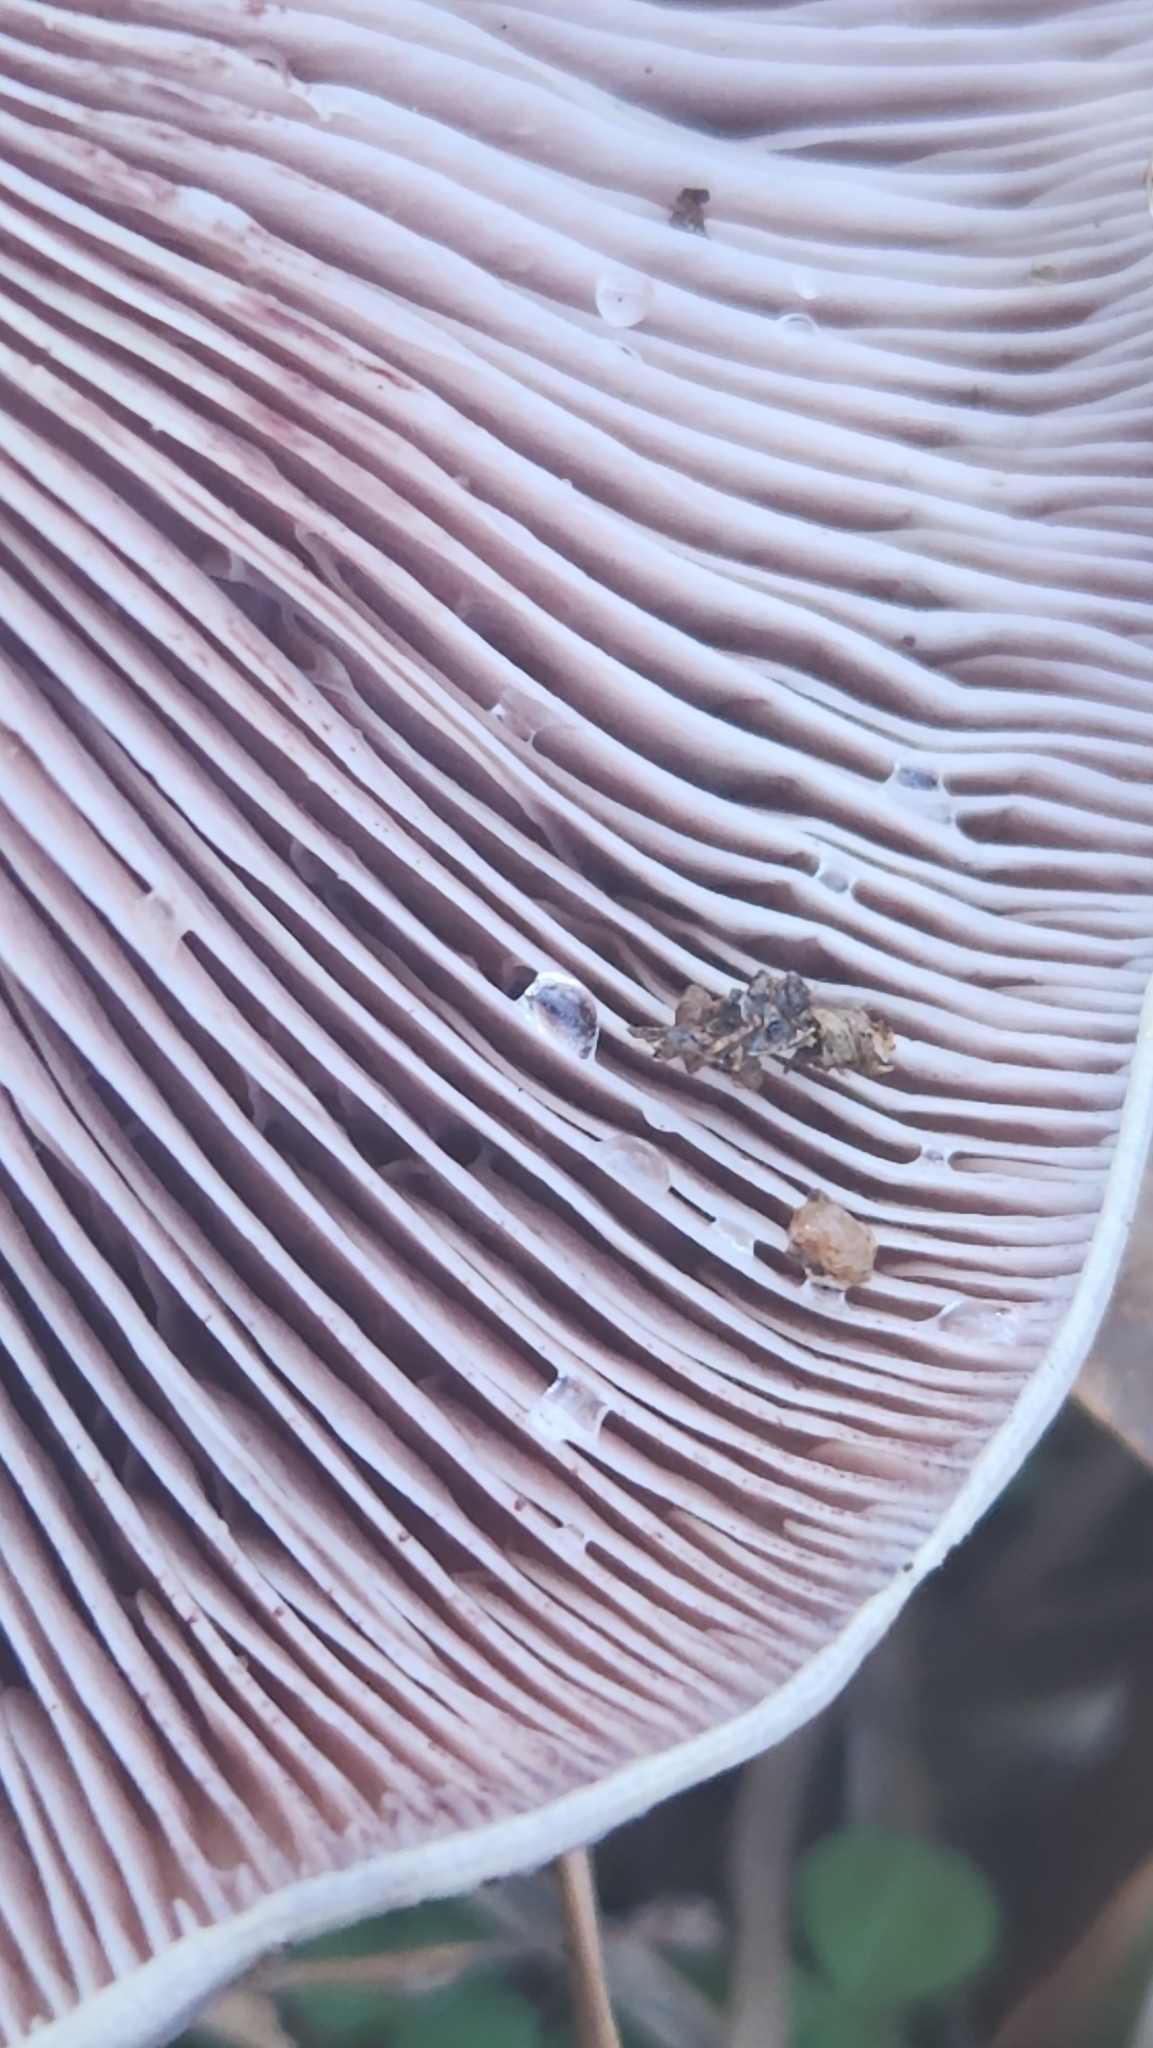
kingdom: Fungi
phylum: Basidiomycota
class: Agaricomycetes
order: Russulales
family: Russulaceae
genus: Lactarius
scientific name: Lactarius paradoxus
